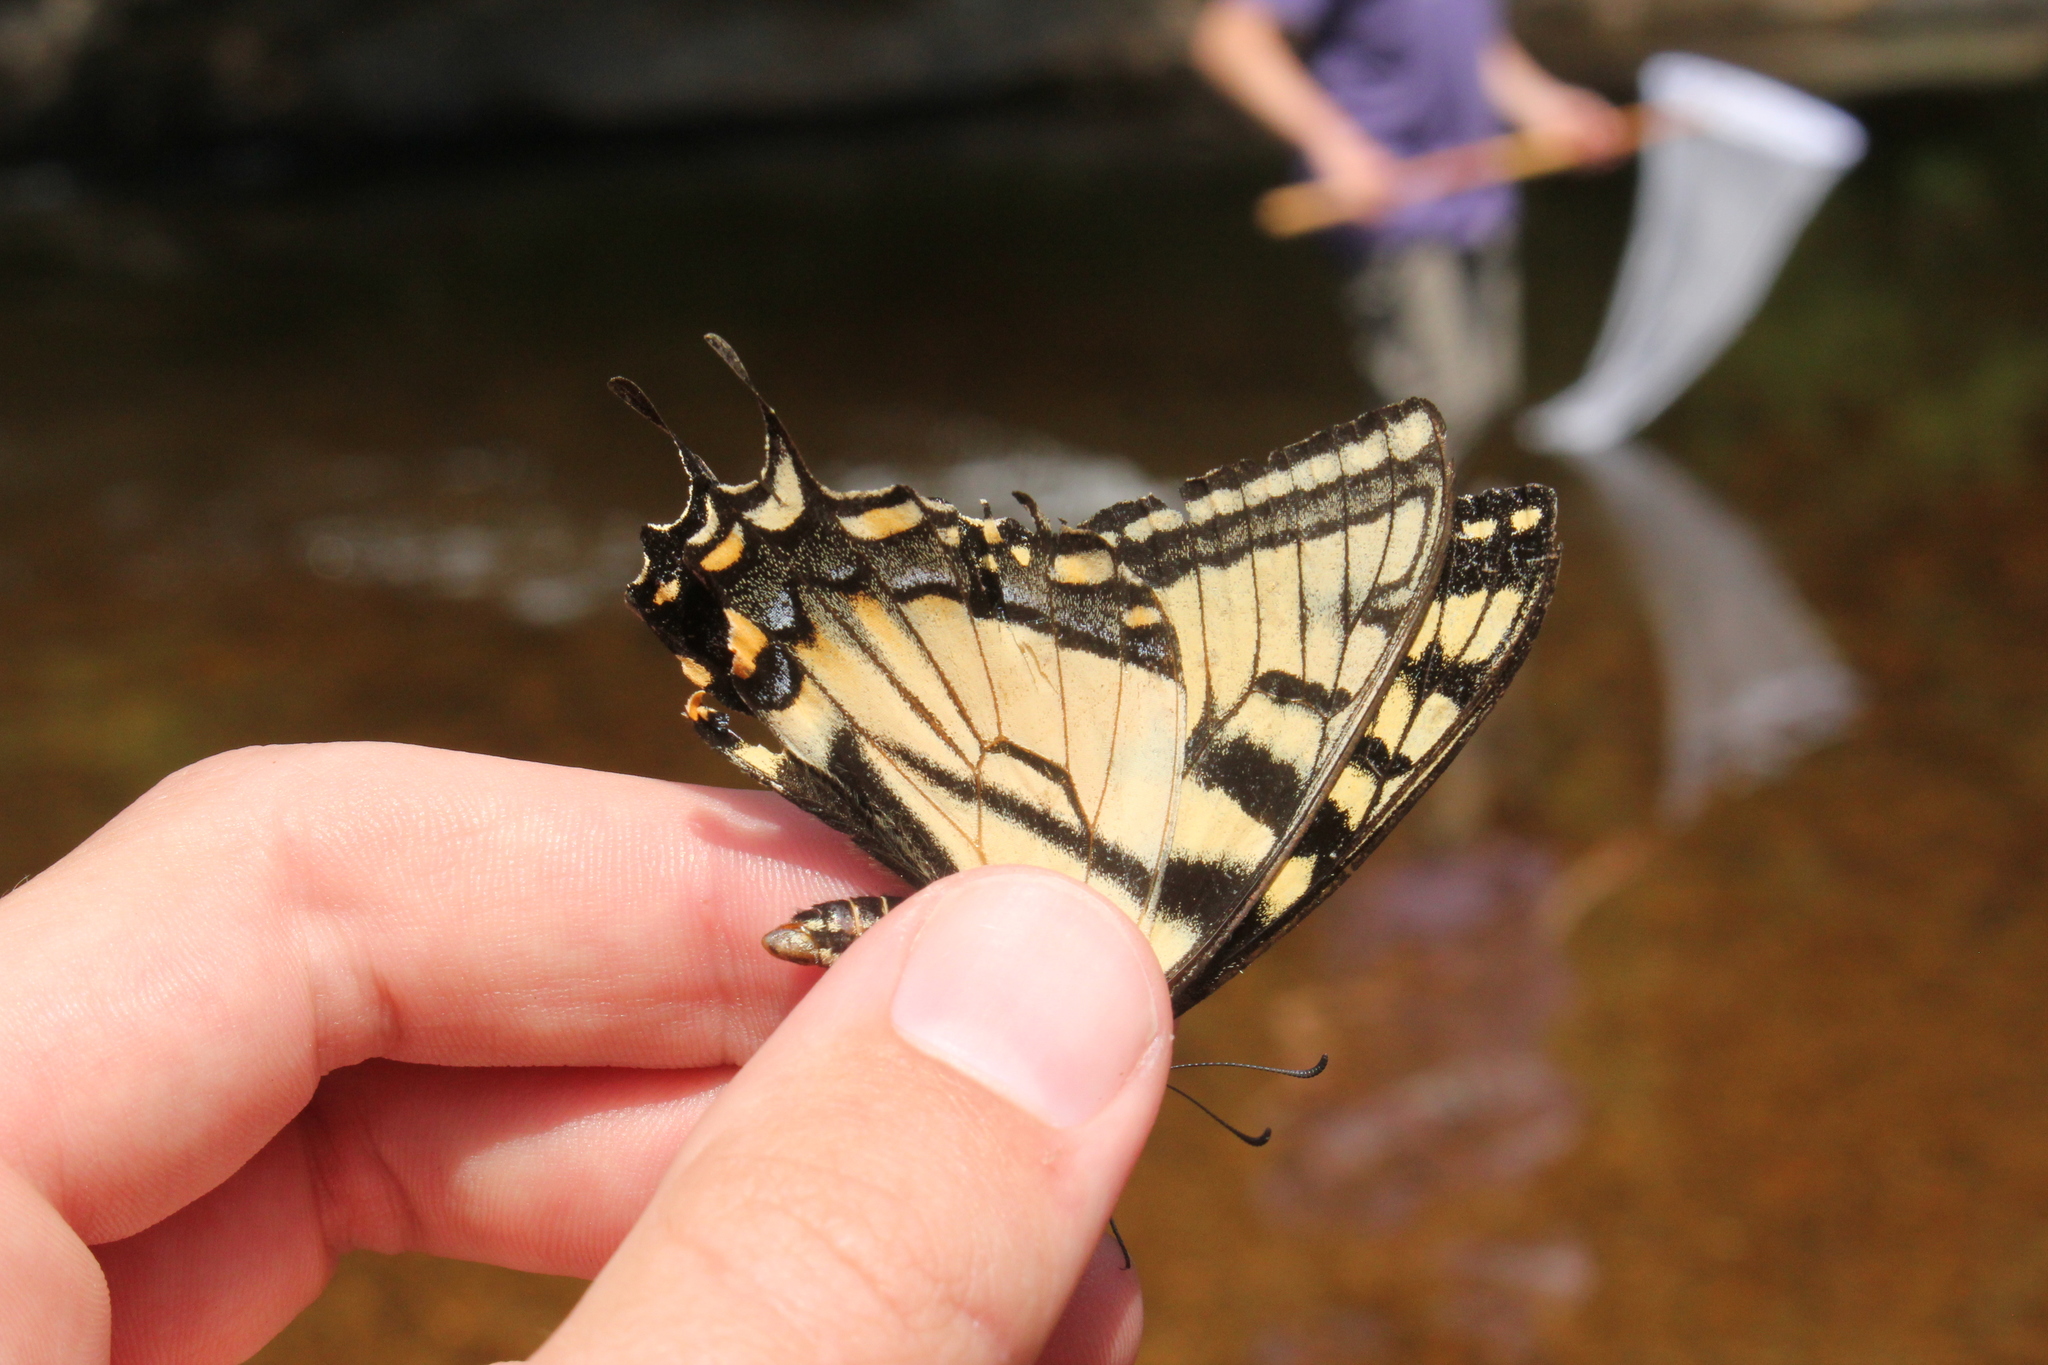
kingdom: Animalia
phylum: Arthropoda
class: Insecta
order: Lepidoptera
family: Papilionidae
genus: Papilio
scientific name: Papilio canadensis
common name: Canadian tiger swallowtail
